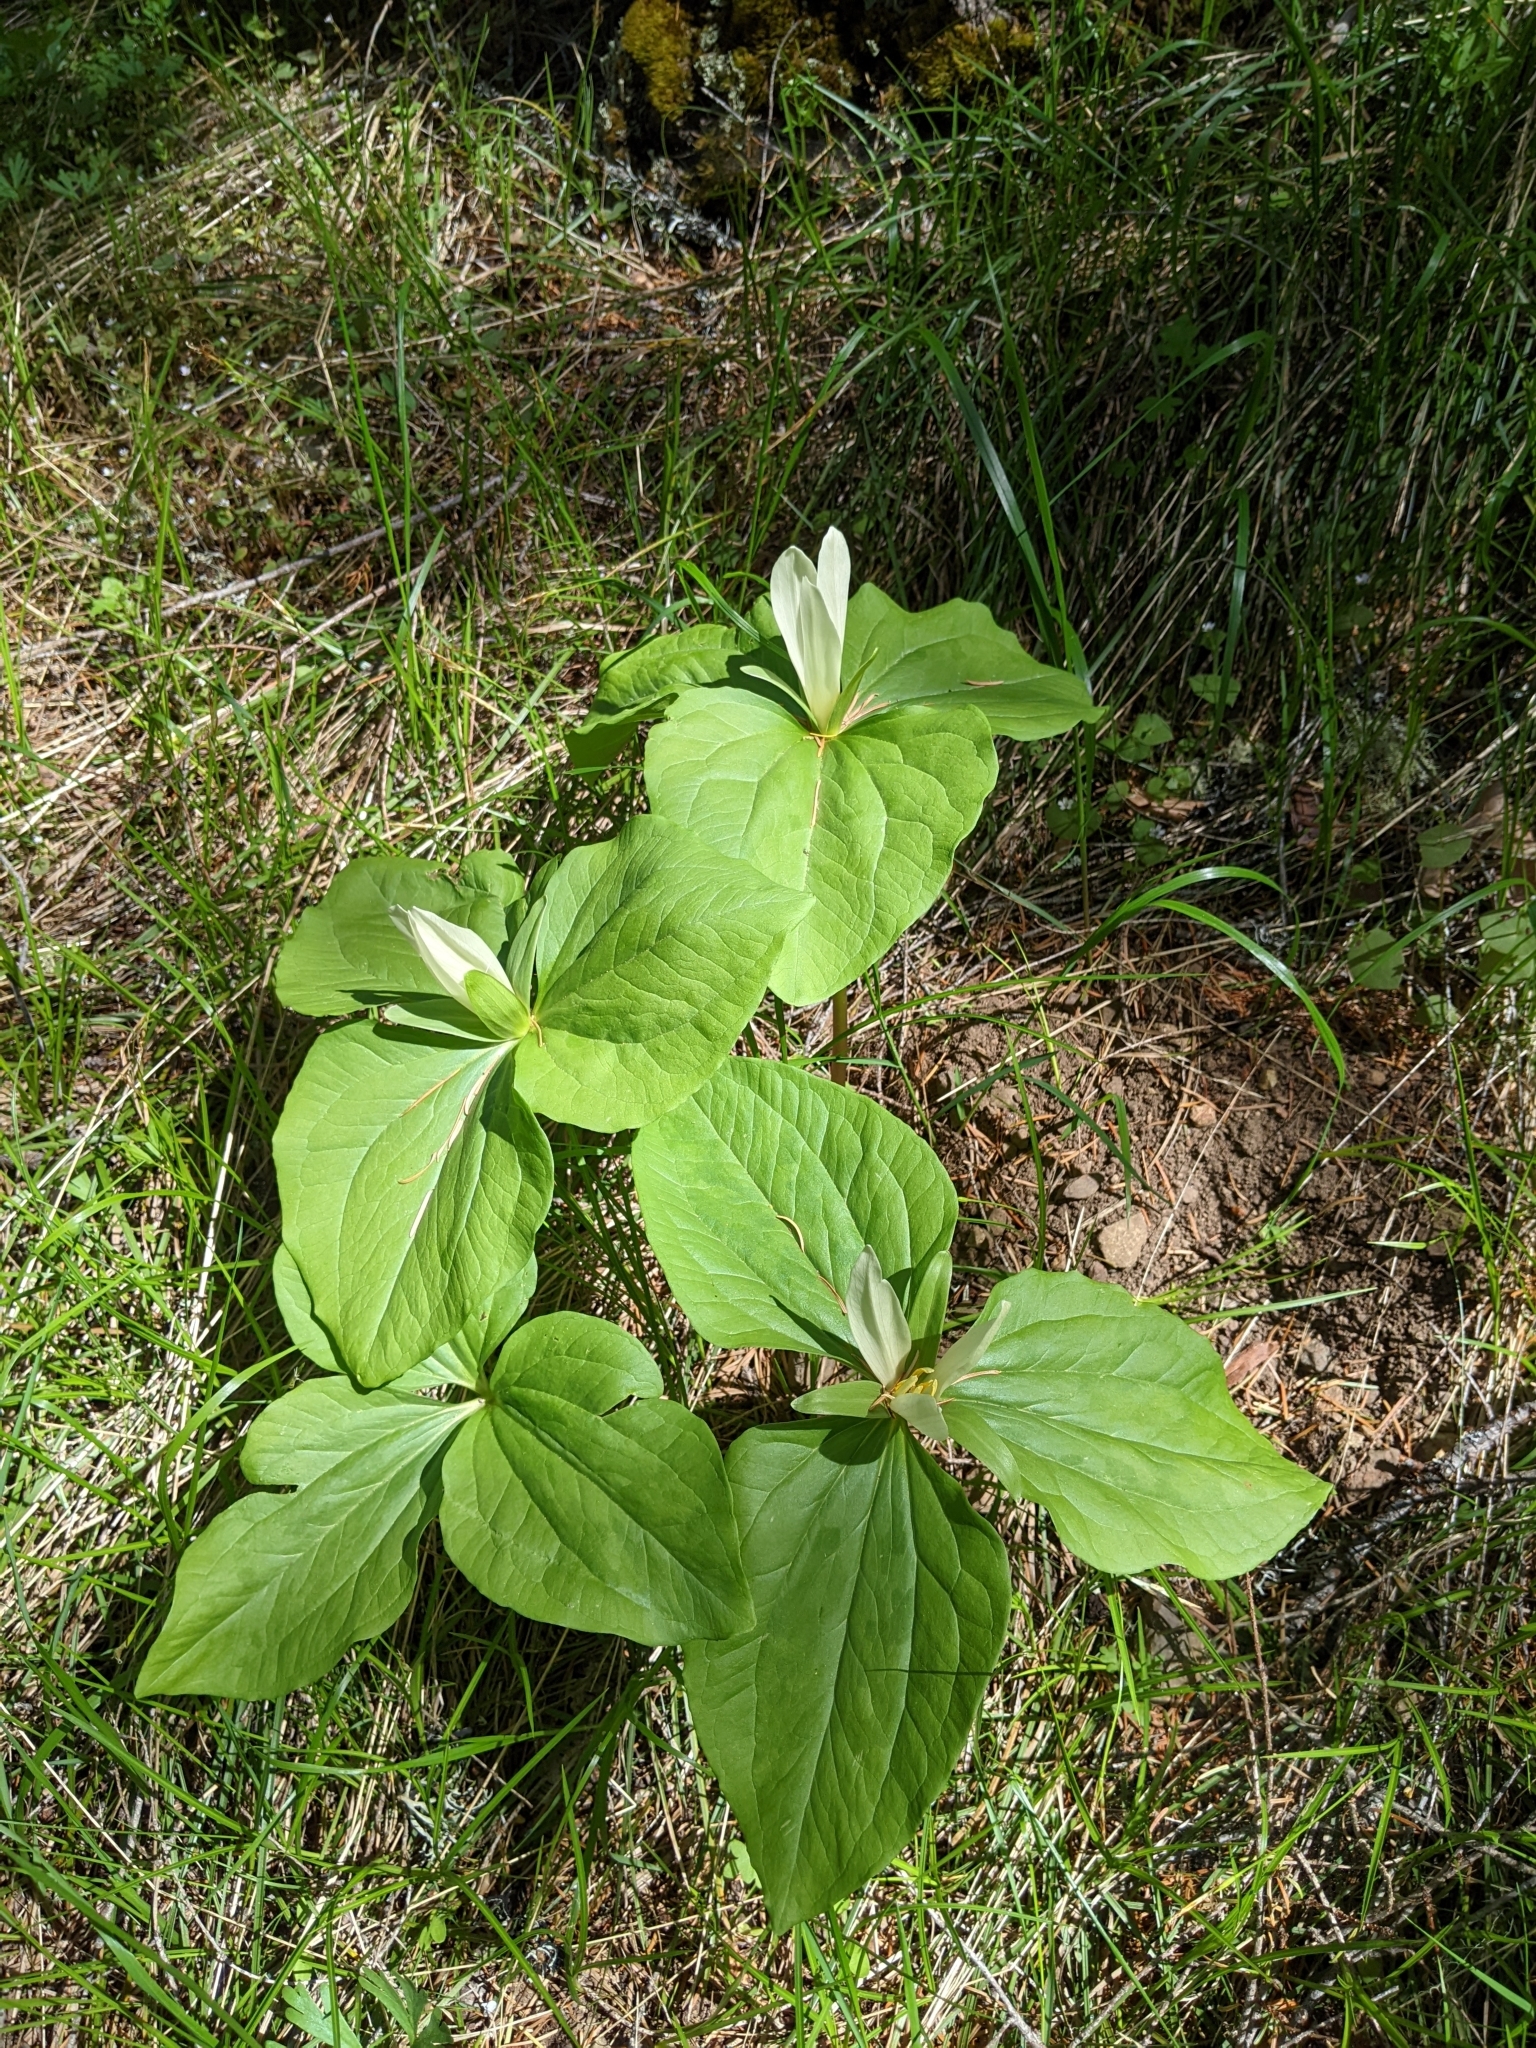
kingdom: Plantae
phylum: Tracheophyta
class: Liliopsida
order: Liliales
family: Melanthiaceae
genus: Trillium
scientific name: Trillium albidum
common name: Freeman's trillium
